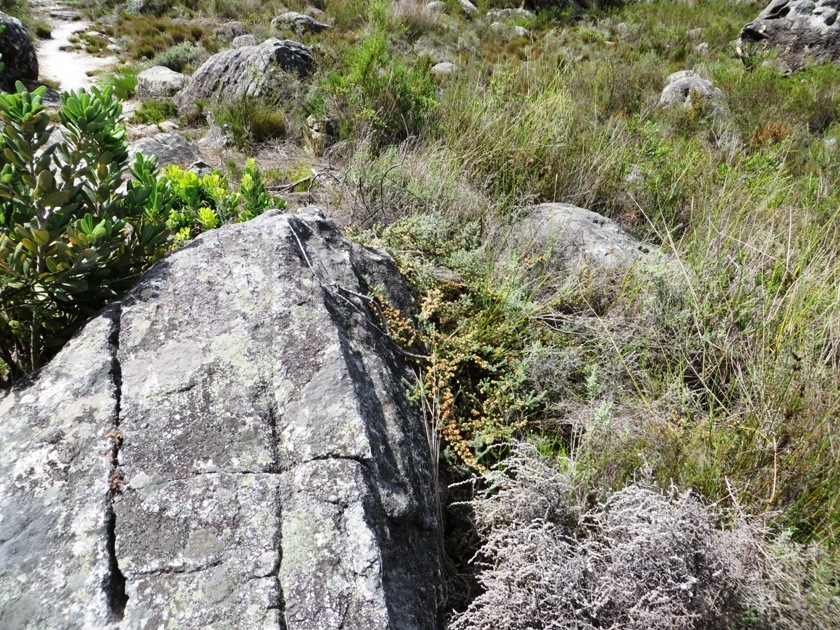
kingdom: Plantae
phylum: Tracheophyta
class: Magnoliopsida
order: Ericales
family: Ericaceae
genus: Erica
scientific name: Erica totta
